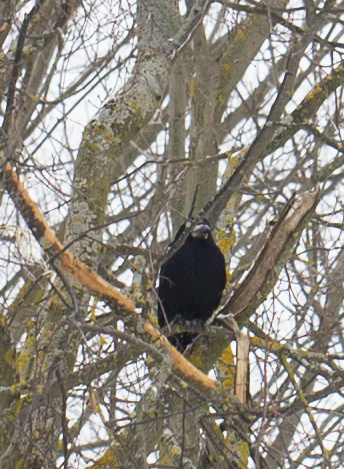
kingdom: Animalia
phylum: Chordata
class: Aves
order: Passeriformes
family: Corvidae
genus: Corvus
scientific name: Corvus frugilegus
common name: Rook
